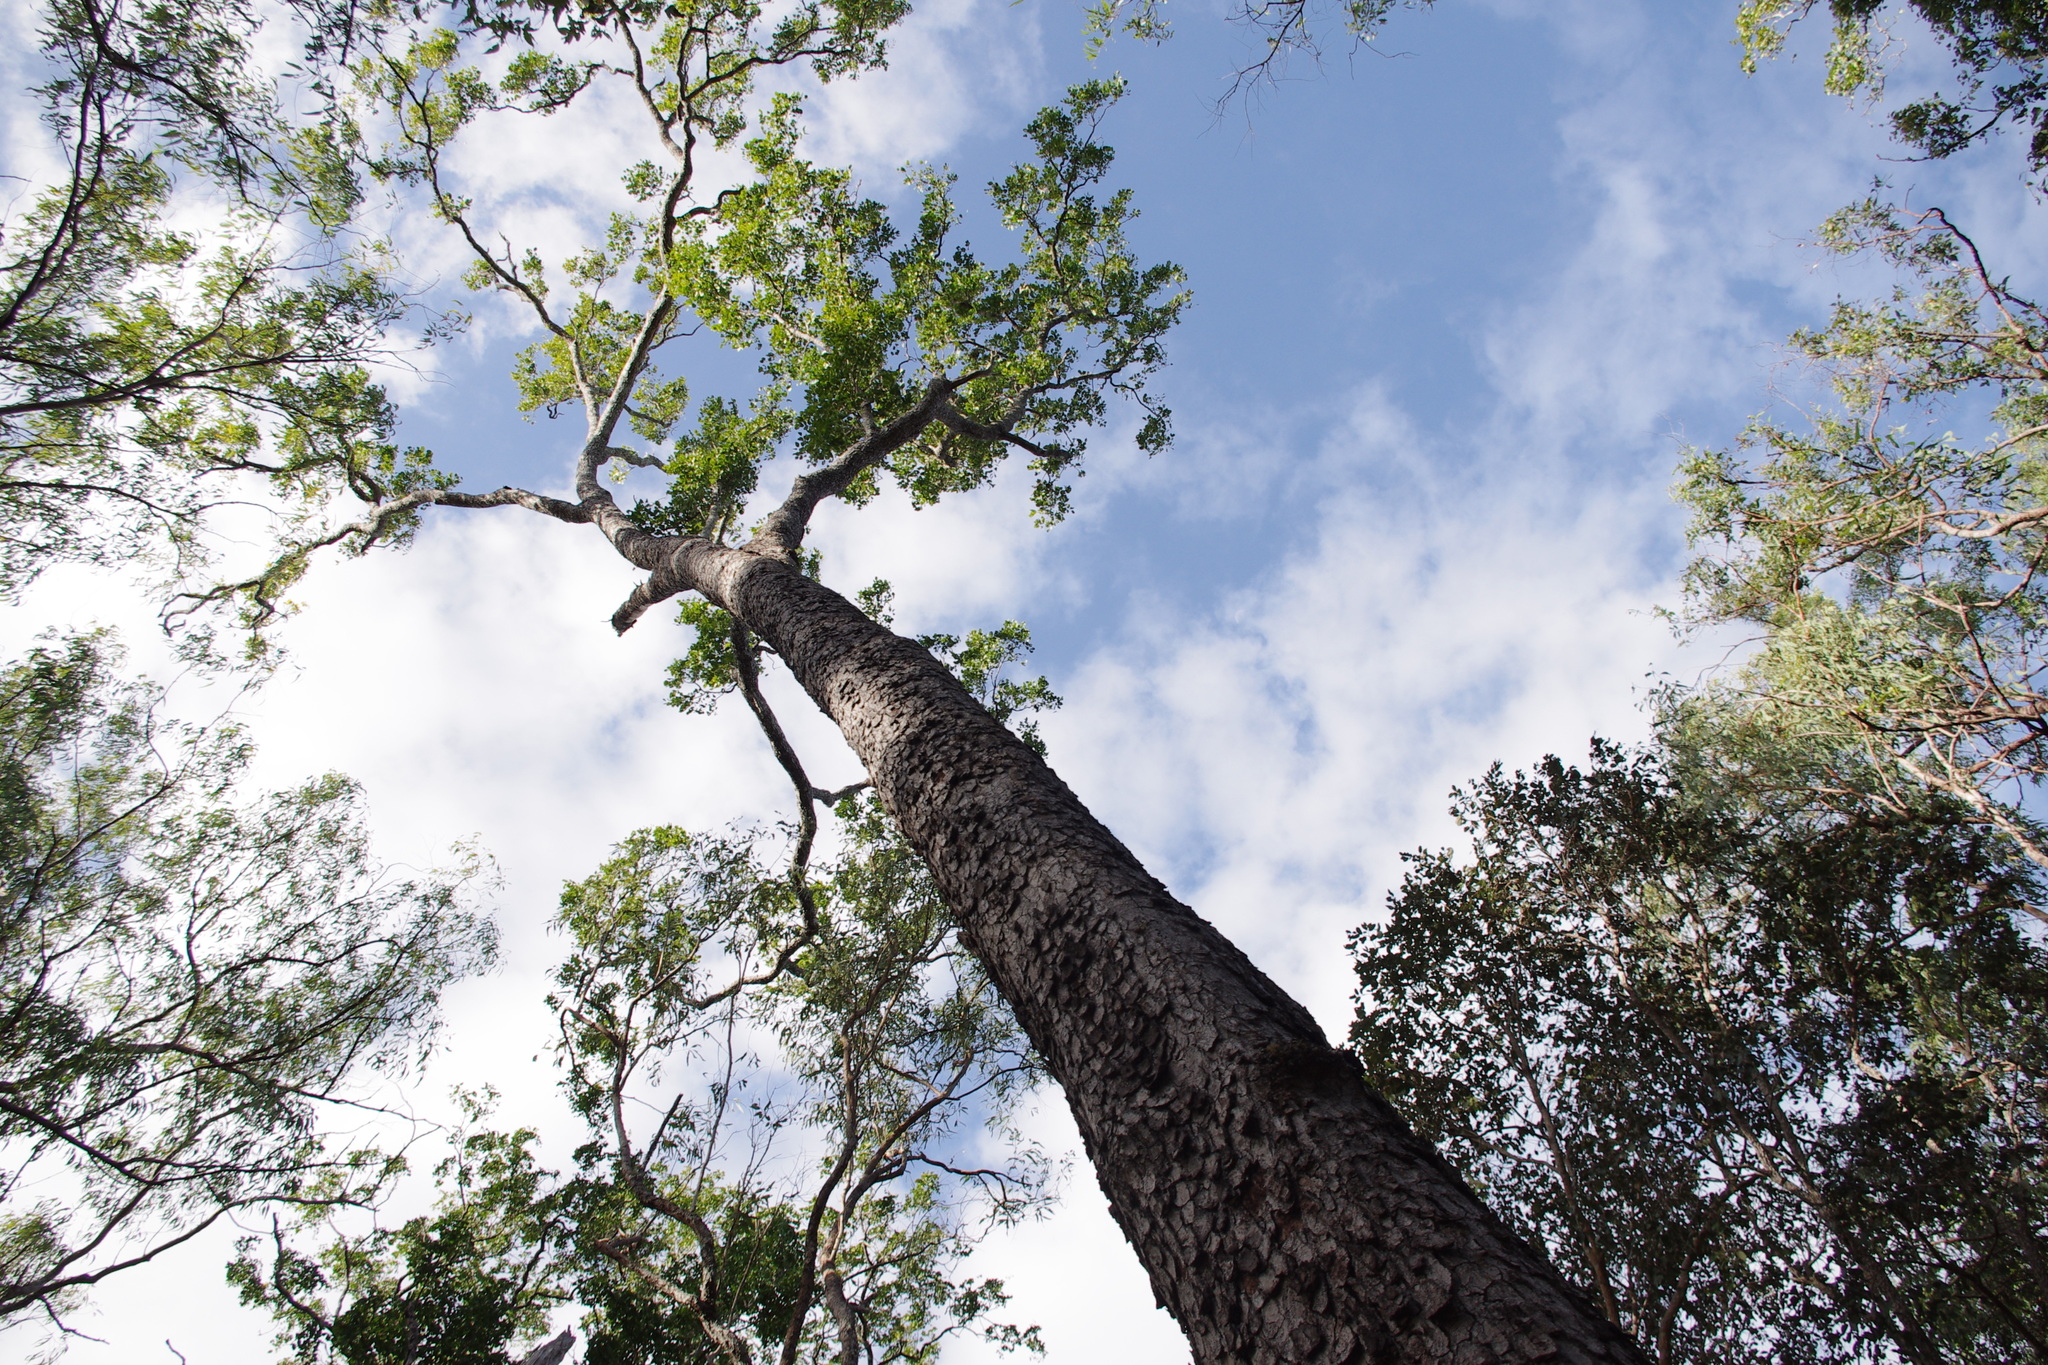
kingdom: Plantae
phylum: Tracheophyta
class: Magnoliopsida
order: Myrtales
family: Myrtaceae
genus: Eucalyptus
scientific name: Eucalyptus tetrodonta
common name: Darwin-stringybark
